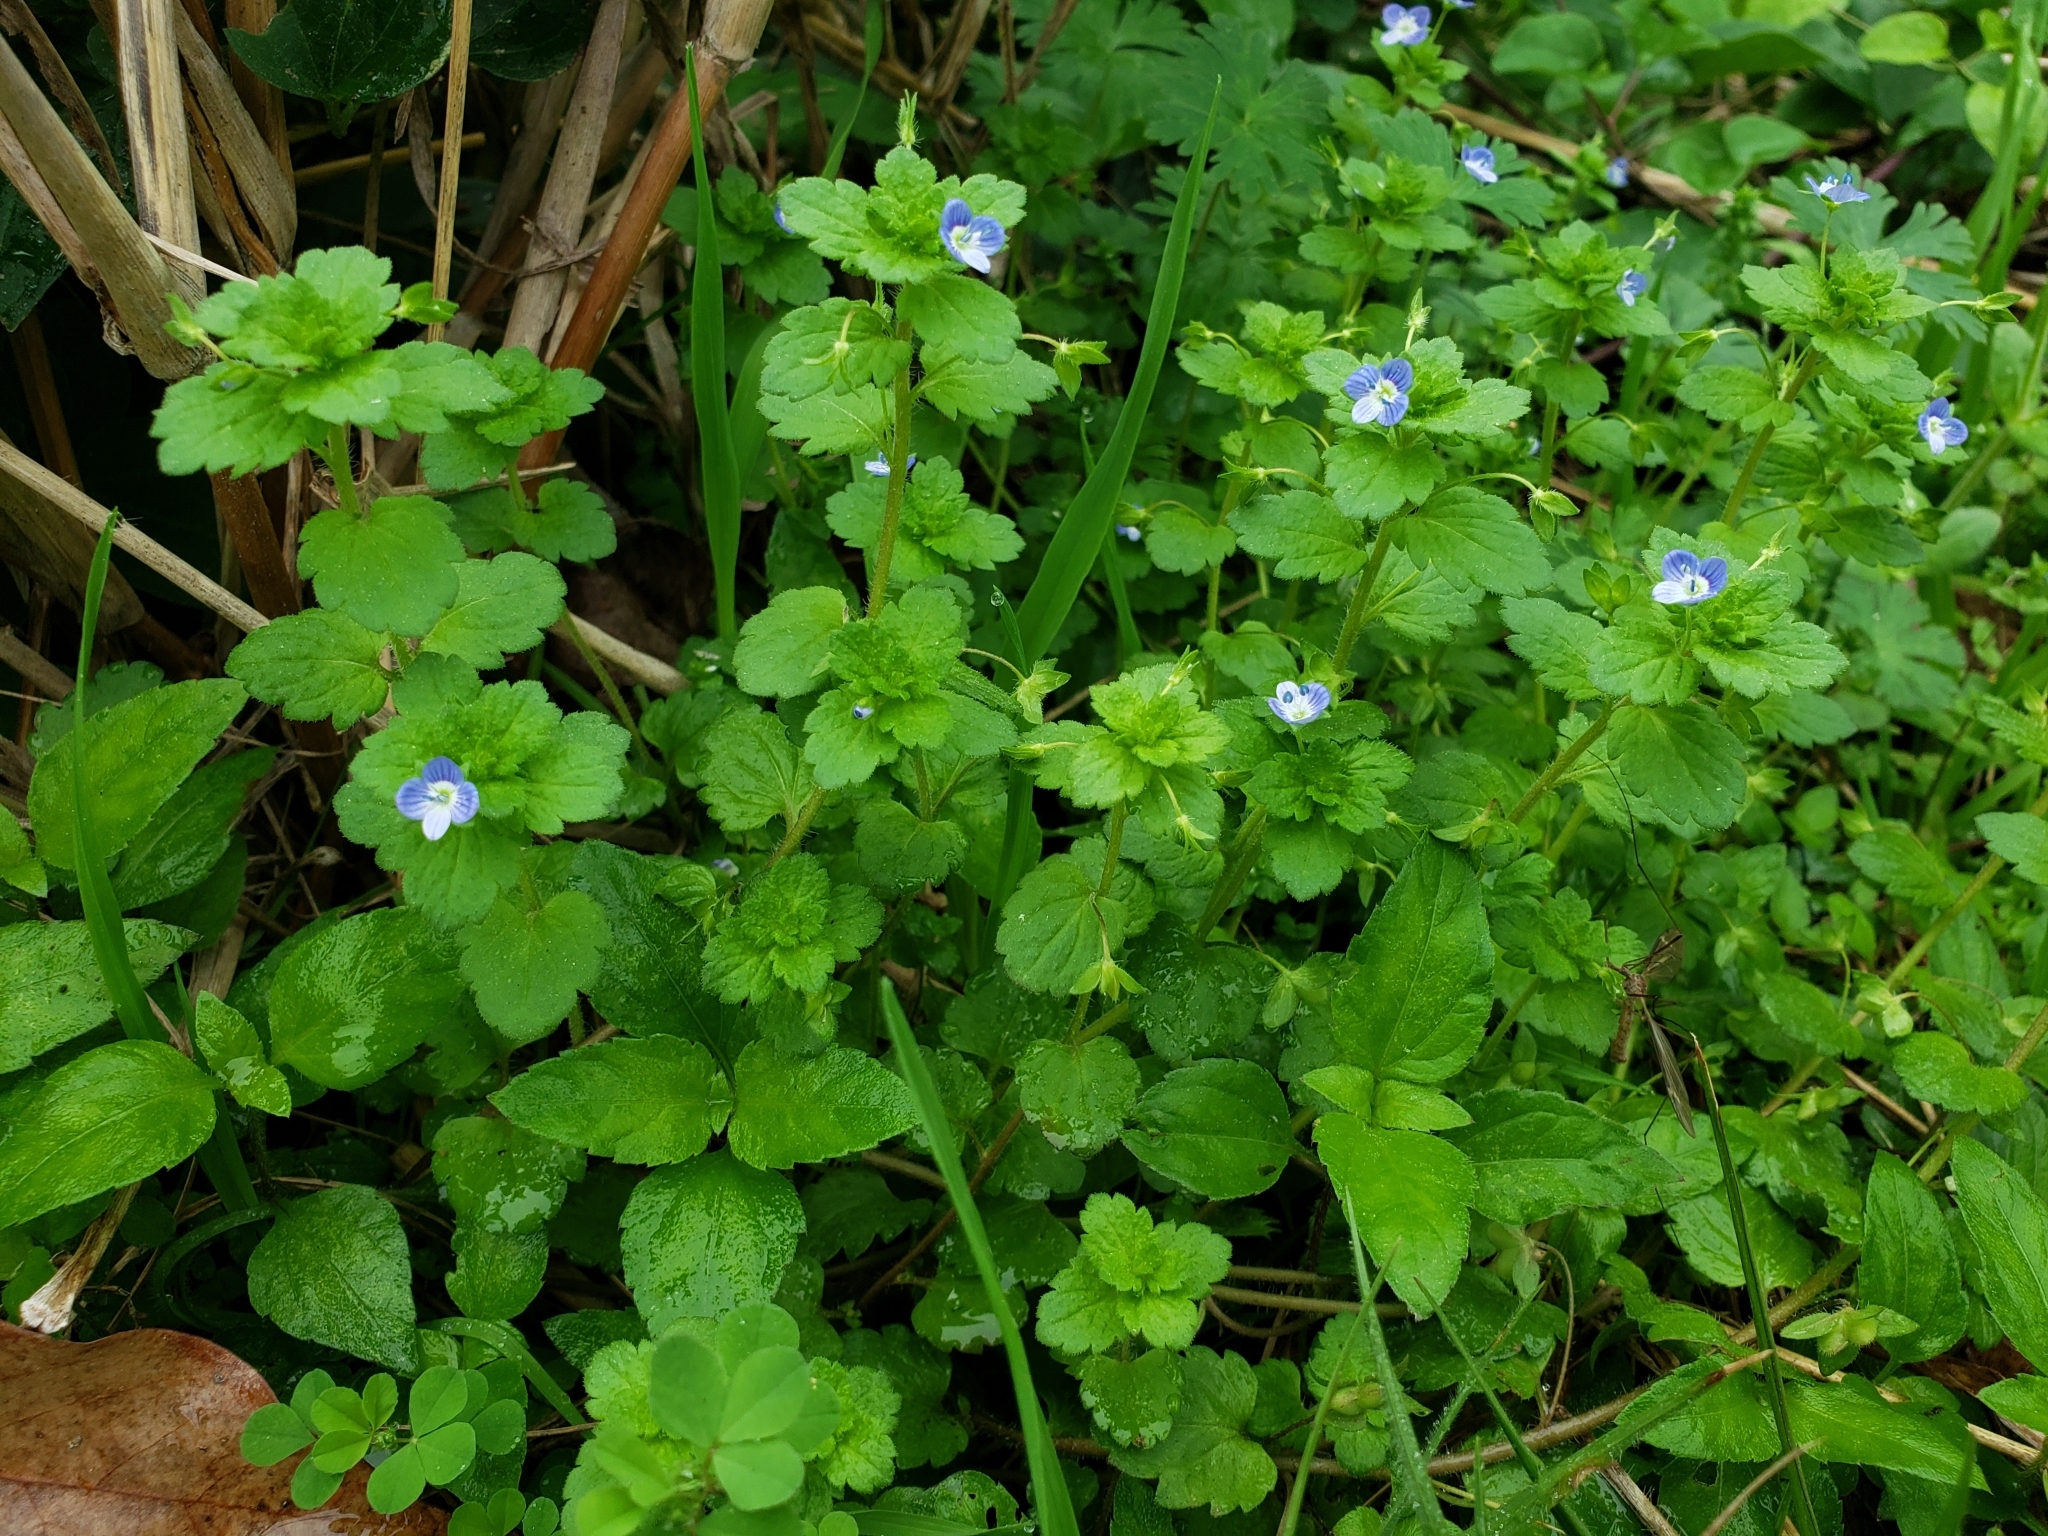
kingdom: Plantae
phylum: Tracheophyta
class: Magnoliopsida
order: Lamiales
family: Plantaginaceae
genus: Veronica
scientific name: Veronica persica
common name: Common field-speedwell
